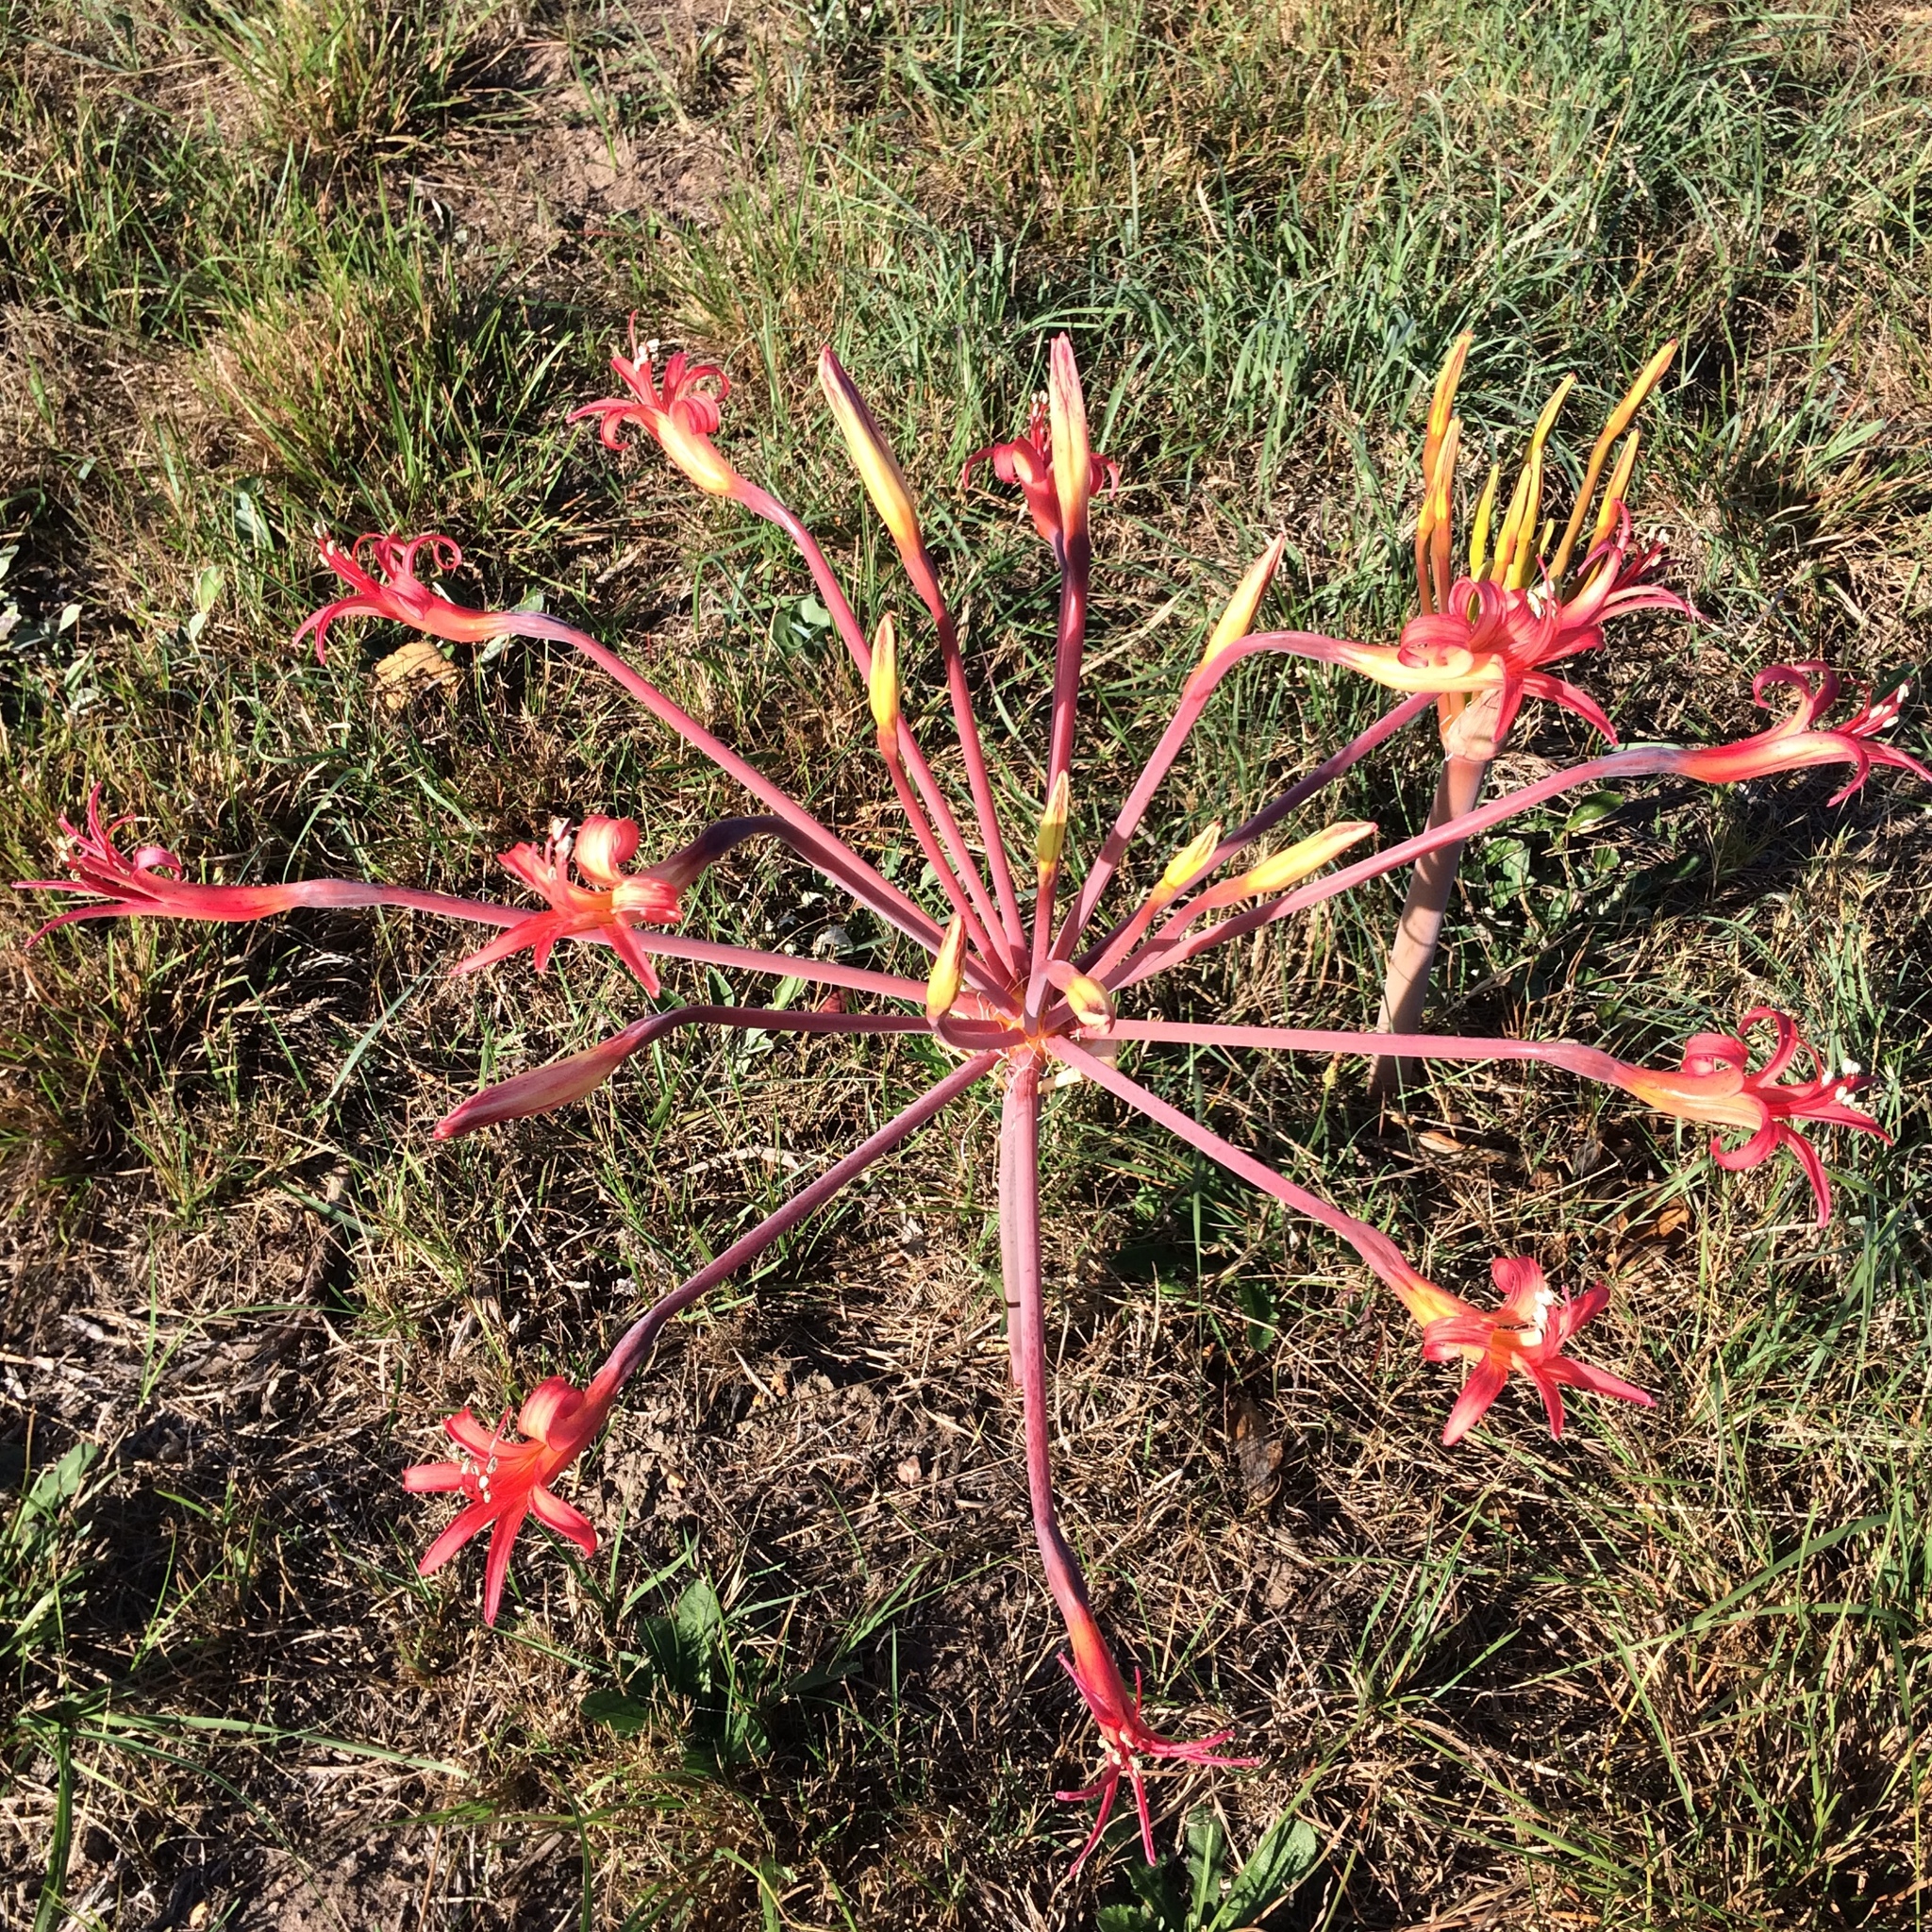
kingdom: Plantae
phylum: Tracheophyta
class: Liliopsida
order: Asparagales
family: Amaryllidaceae
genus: Brunsvigia
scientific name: Brunsvigia litoralis
